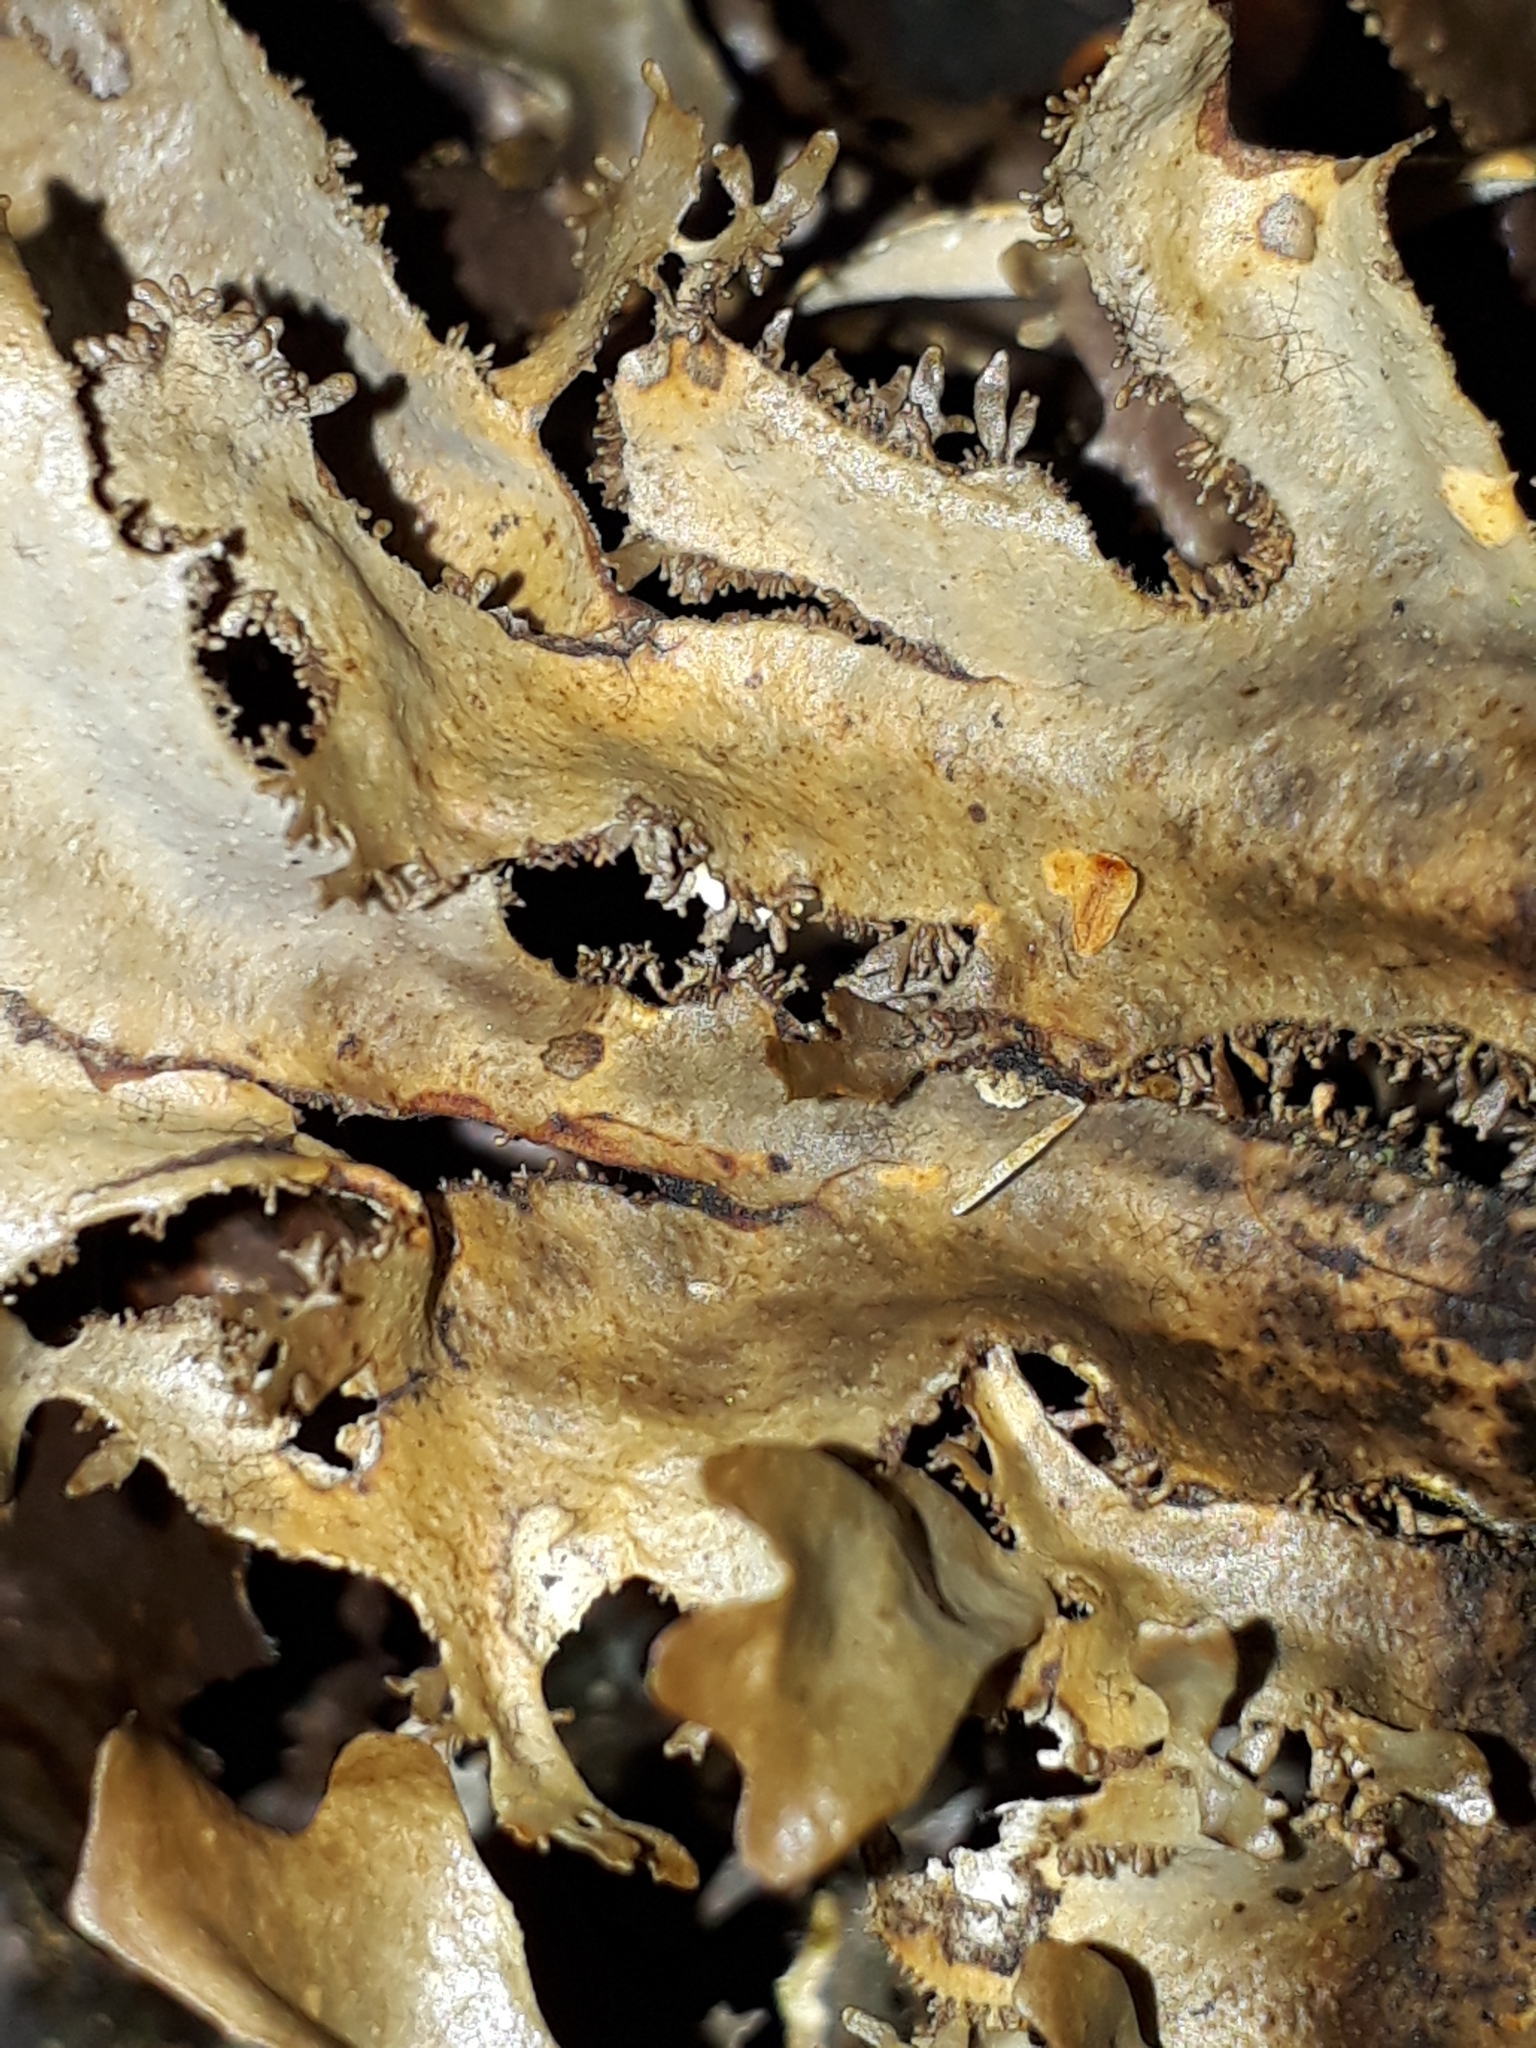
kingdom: Fungi
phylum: Ascomycota
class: Lecanoromycetes
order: Peltigerales
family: Lobariaceae
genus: Pseudocyphellaria
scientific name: Pseudocyphellaria dissimilis
